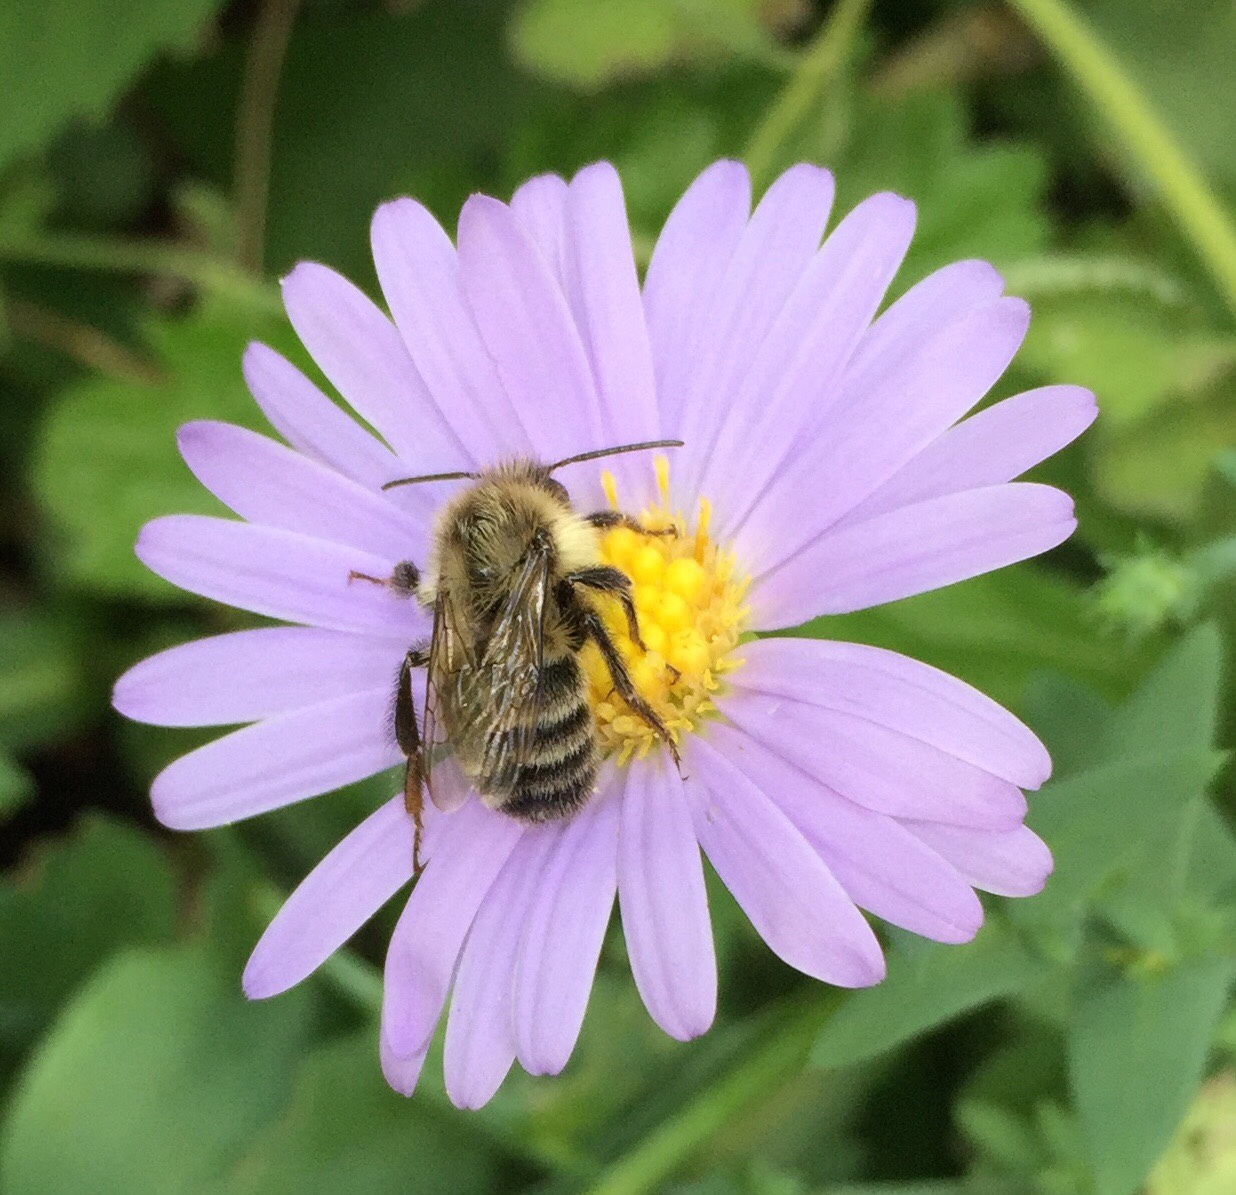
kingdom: Animalia
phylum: Arthropoda
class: Insecta
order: Hymenoptera
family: Apidae
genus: Bombus
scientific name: Bombus impatiens
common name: Common eastern bumble bee
